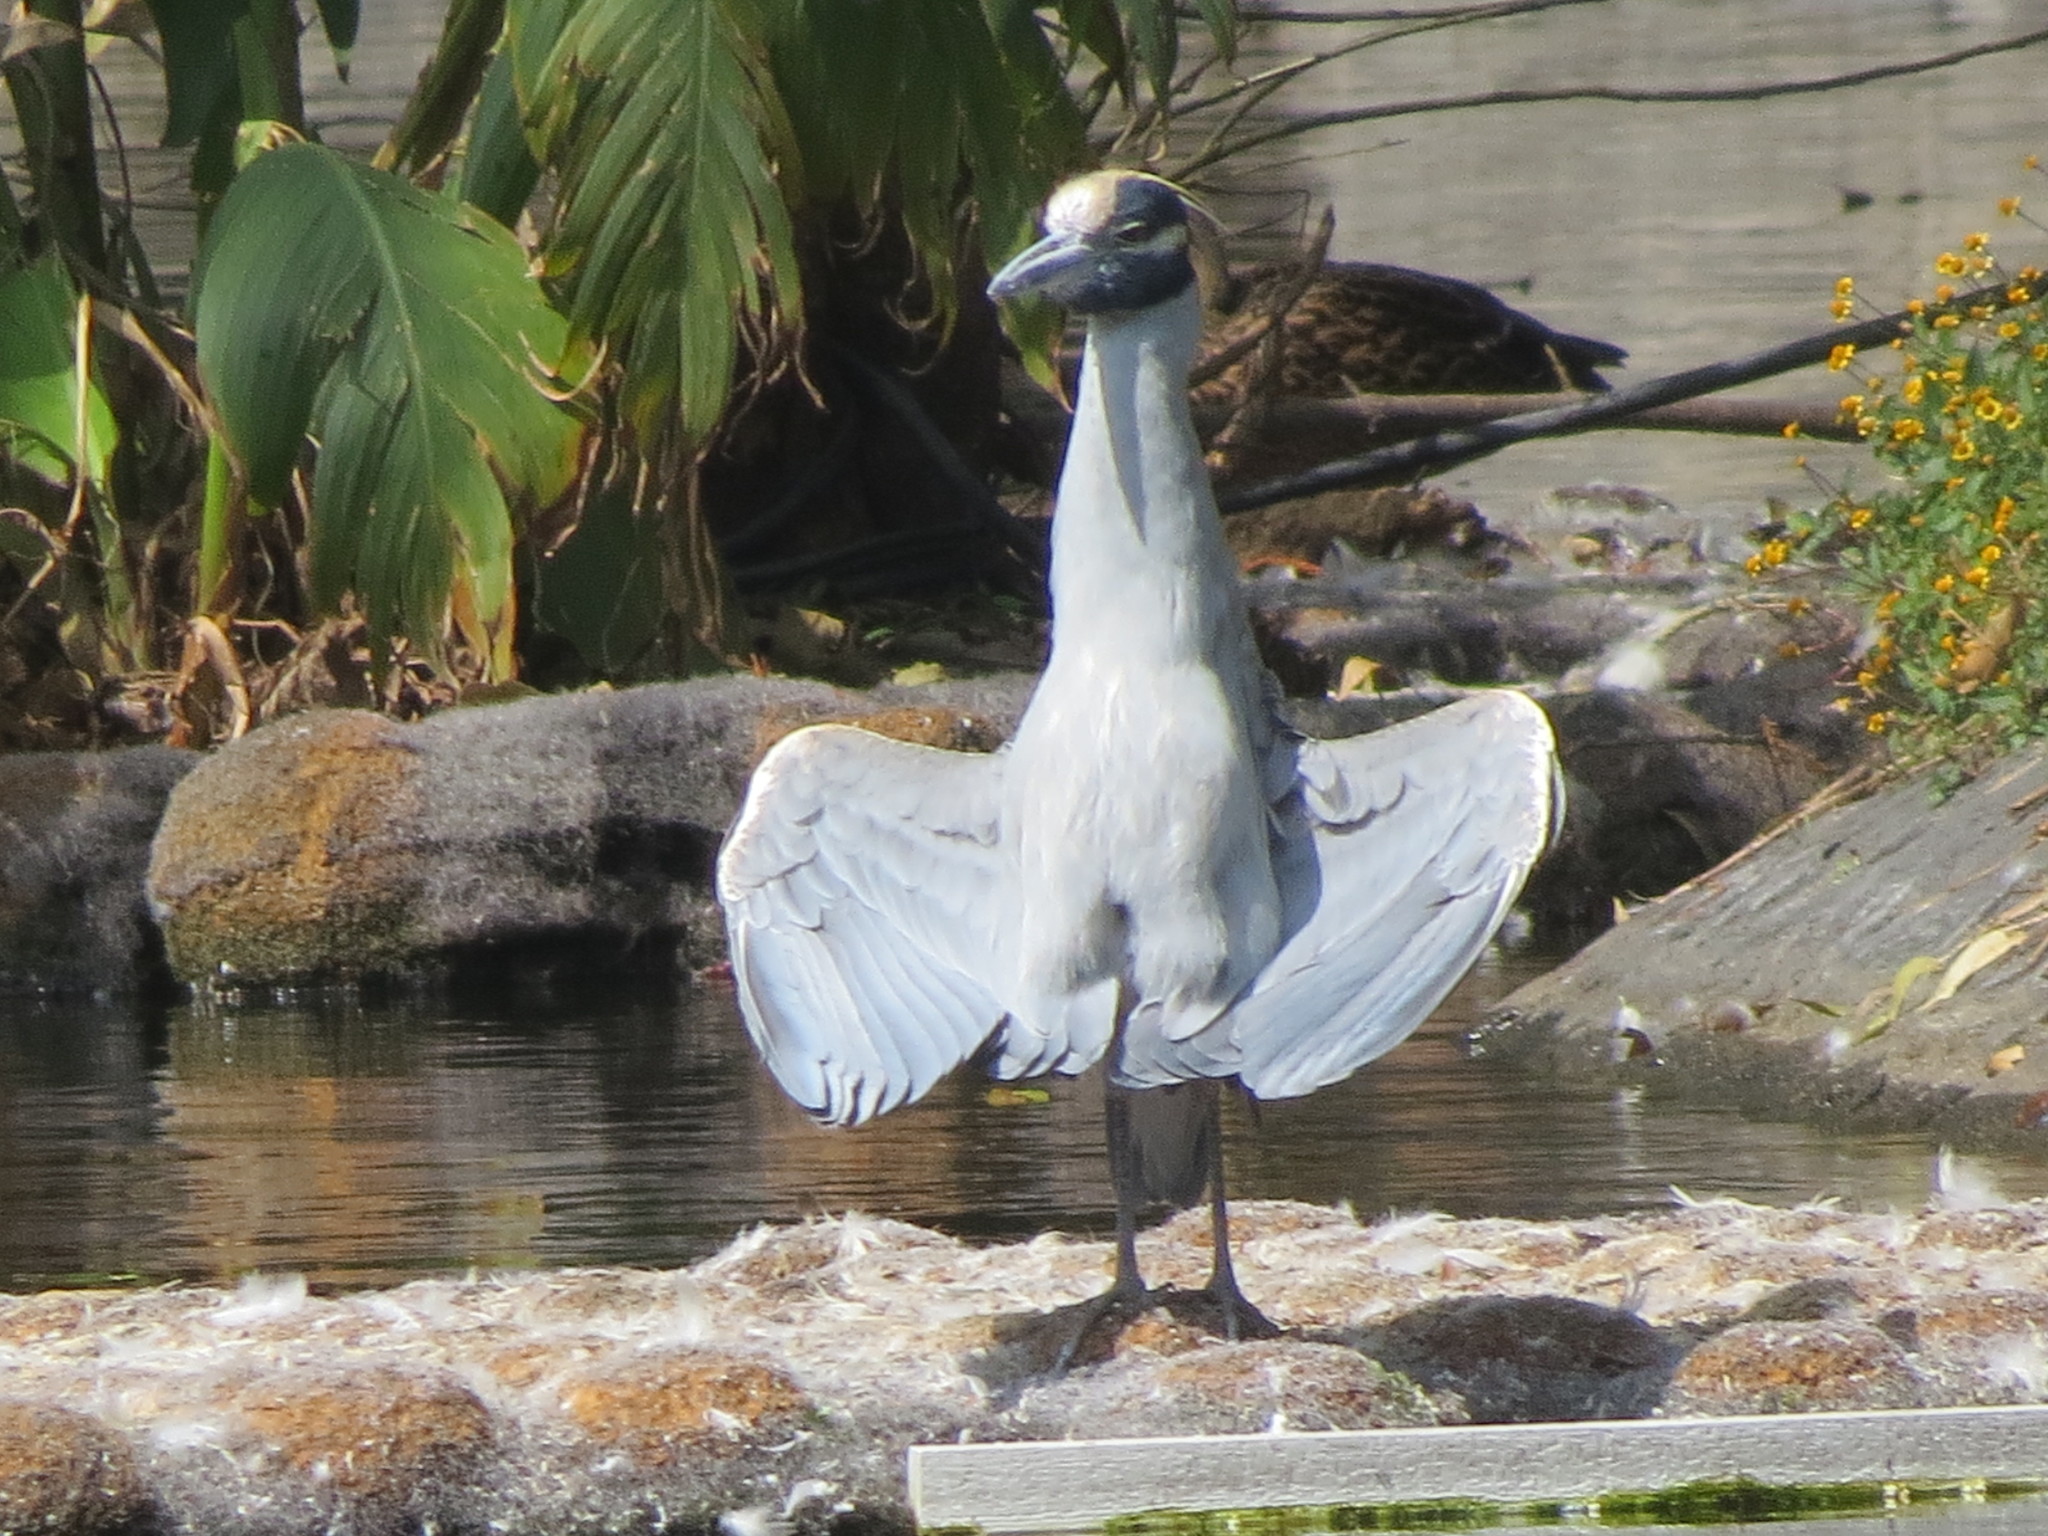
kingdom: Animalia
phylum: Chordata
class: Aves
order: Pelecaniformes
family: Ardeidae
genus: Nyctanassa
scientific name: Nyctanassa violacea
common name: Yellow-crowned night heron
